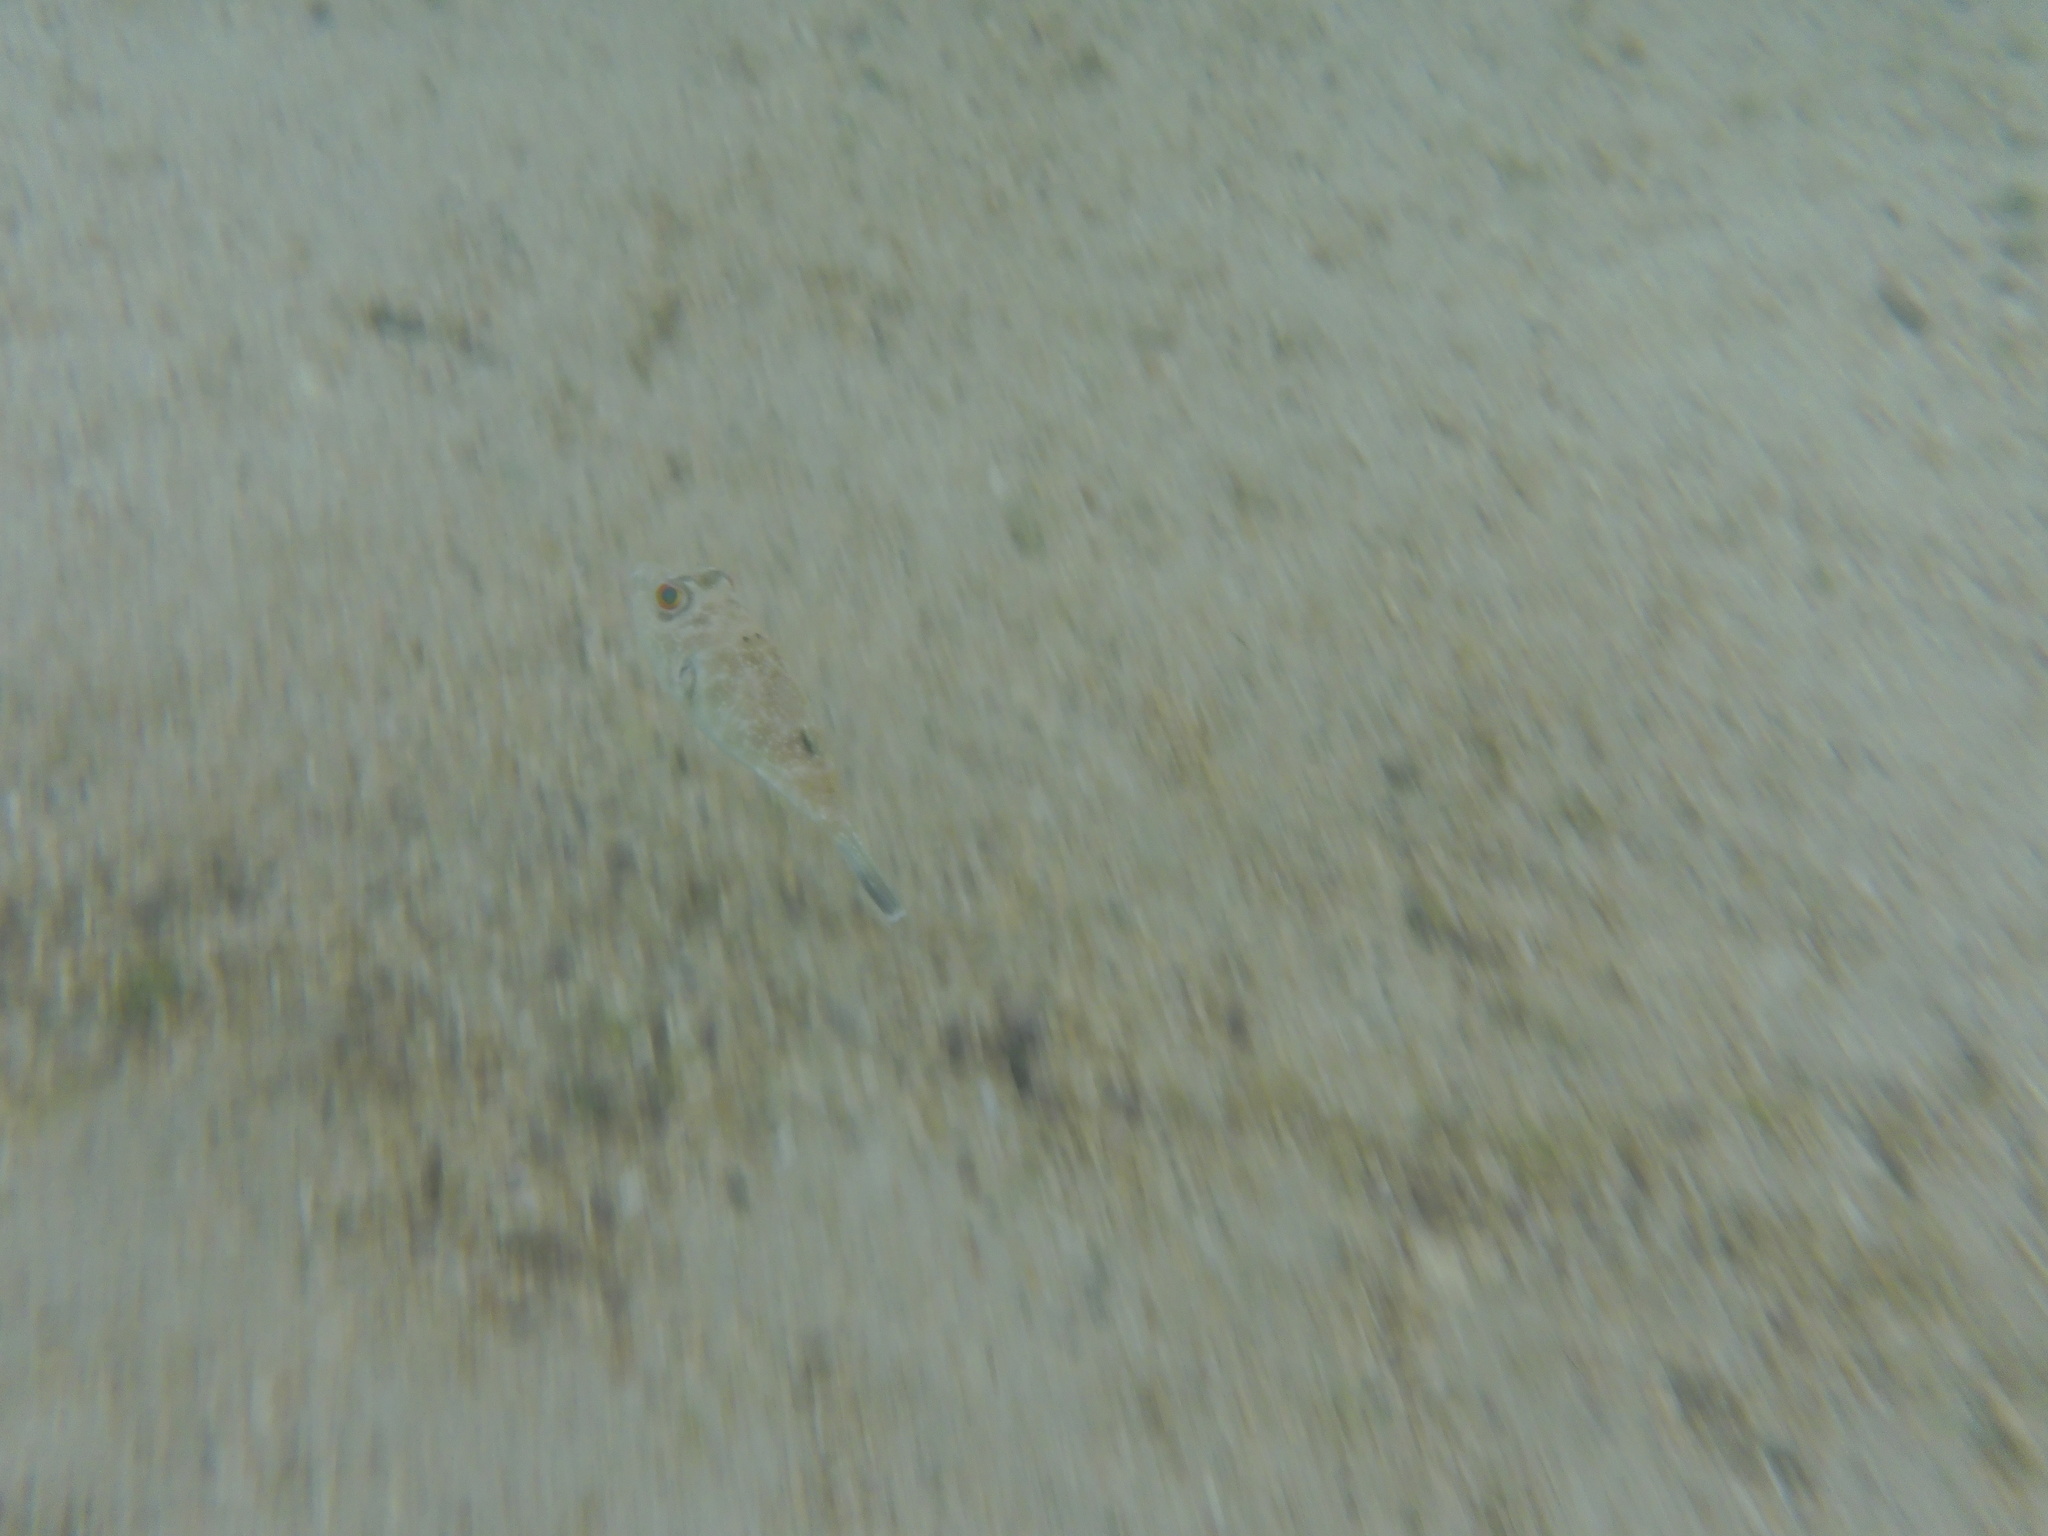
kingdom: Animalia
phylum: Chordata
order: Tetraodontiformes
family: Tetraodontidae
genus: Sphoeroides
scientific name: Sphoeroides annulatus
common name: Bullseye puffer
